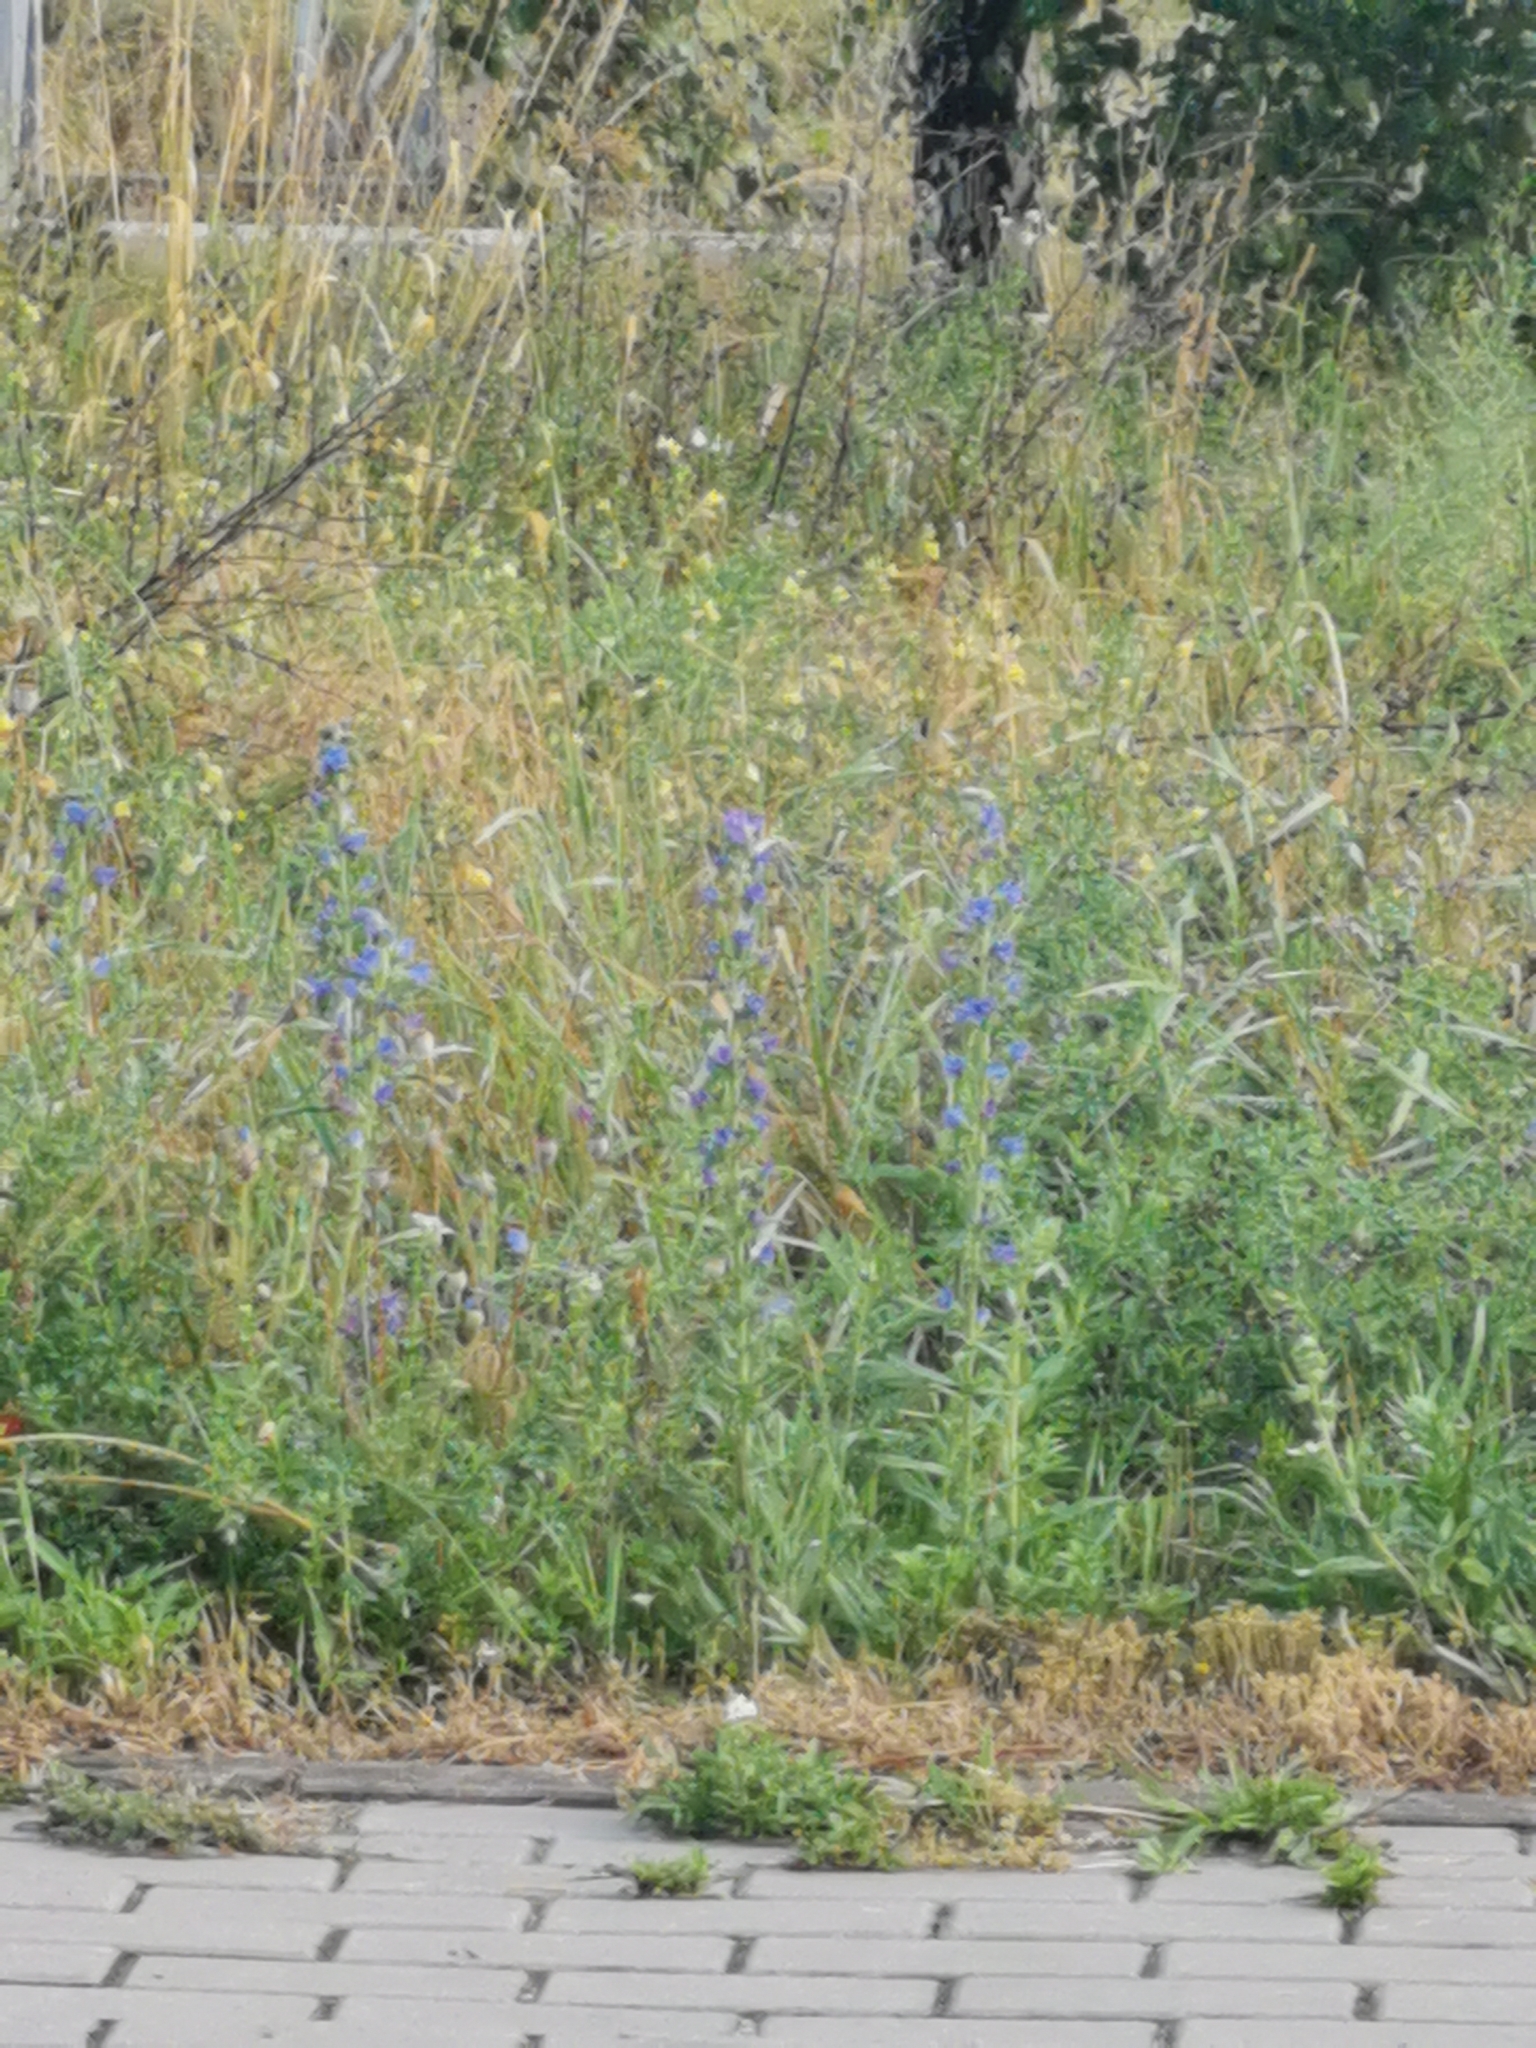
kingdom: Plantae
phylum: Tracheophyta
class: Magnoliopsida
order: Boraginales
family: Boraginaceae
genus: Echium
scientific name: Echium vulgare
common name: Common viper's bugloss
